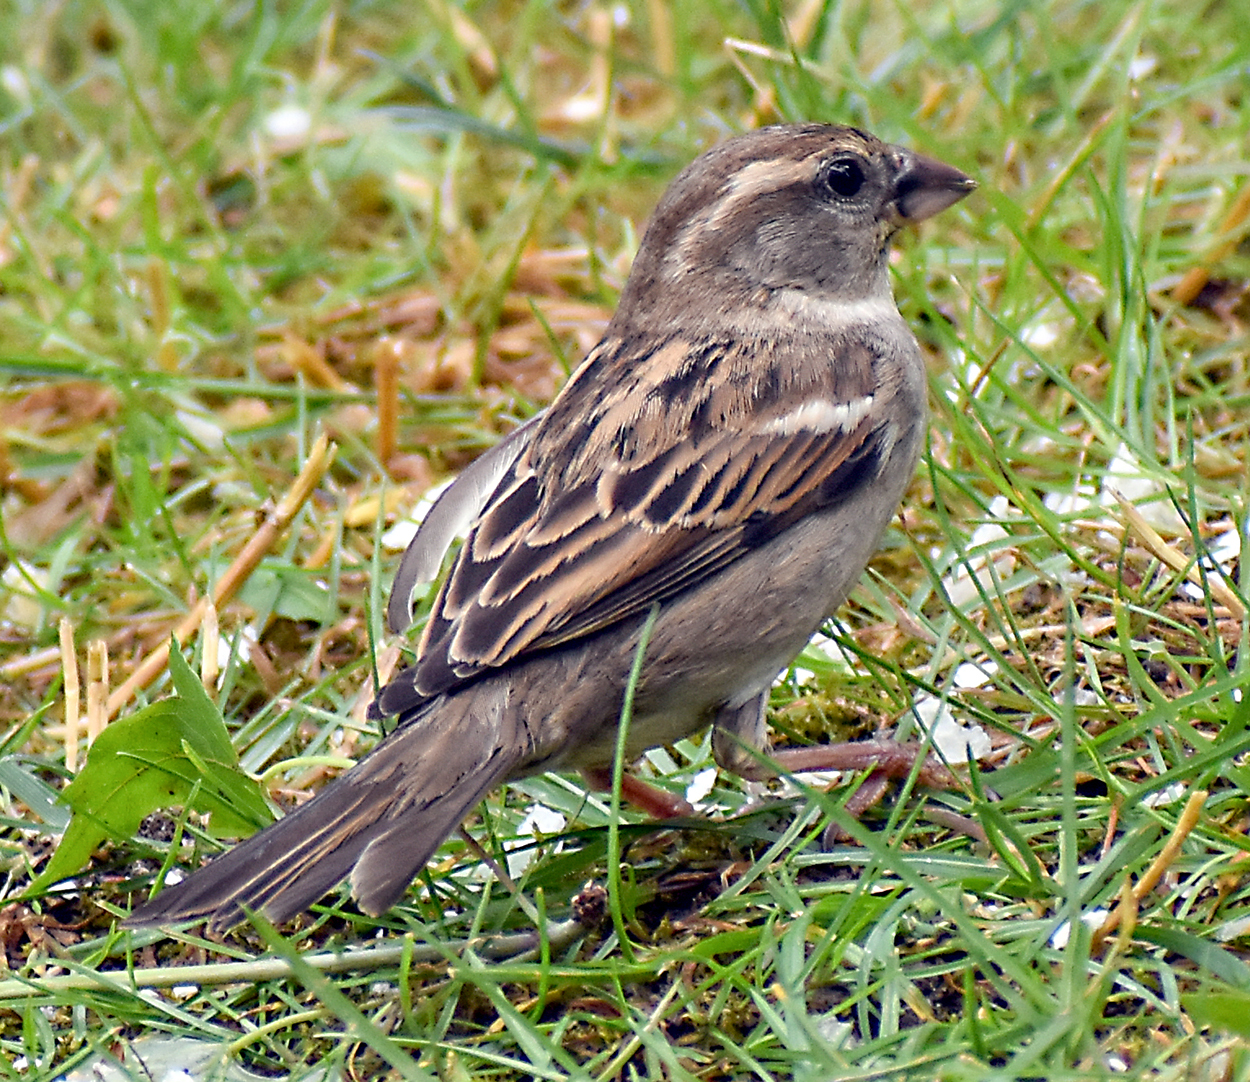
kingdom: Animalia
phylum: Chordata
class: Aves
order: Passeriformes
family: Passeridae
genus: Passer
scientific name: Passer italiae
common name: Italian sparrow
